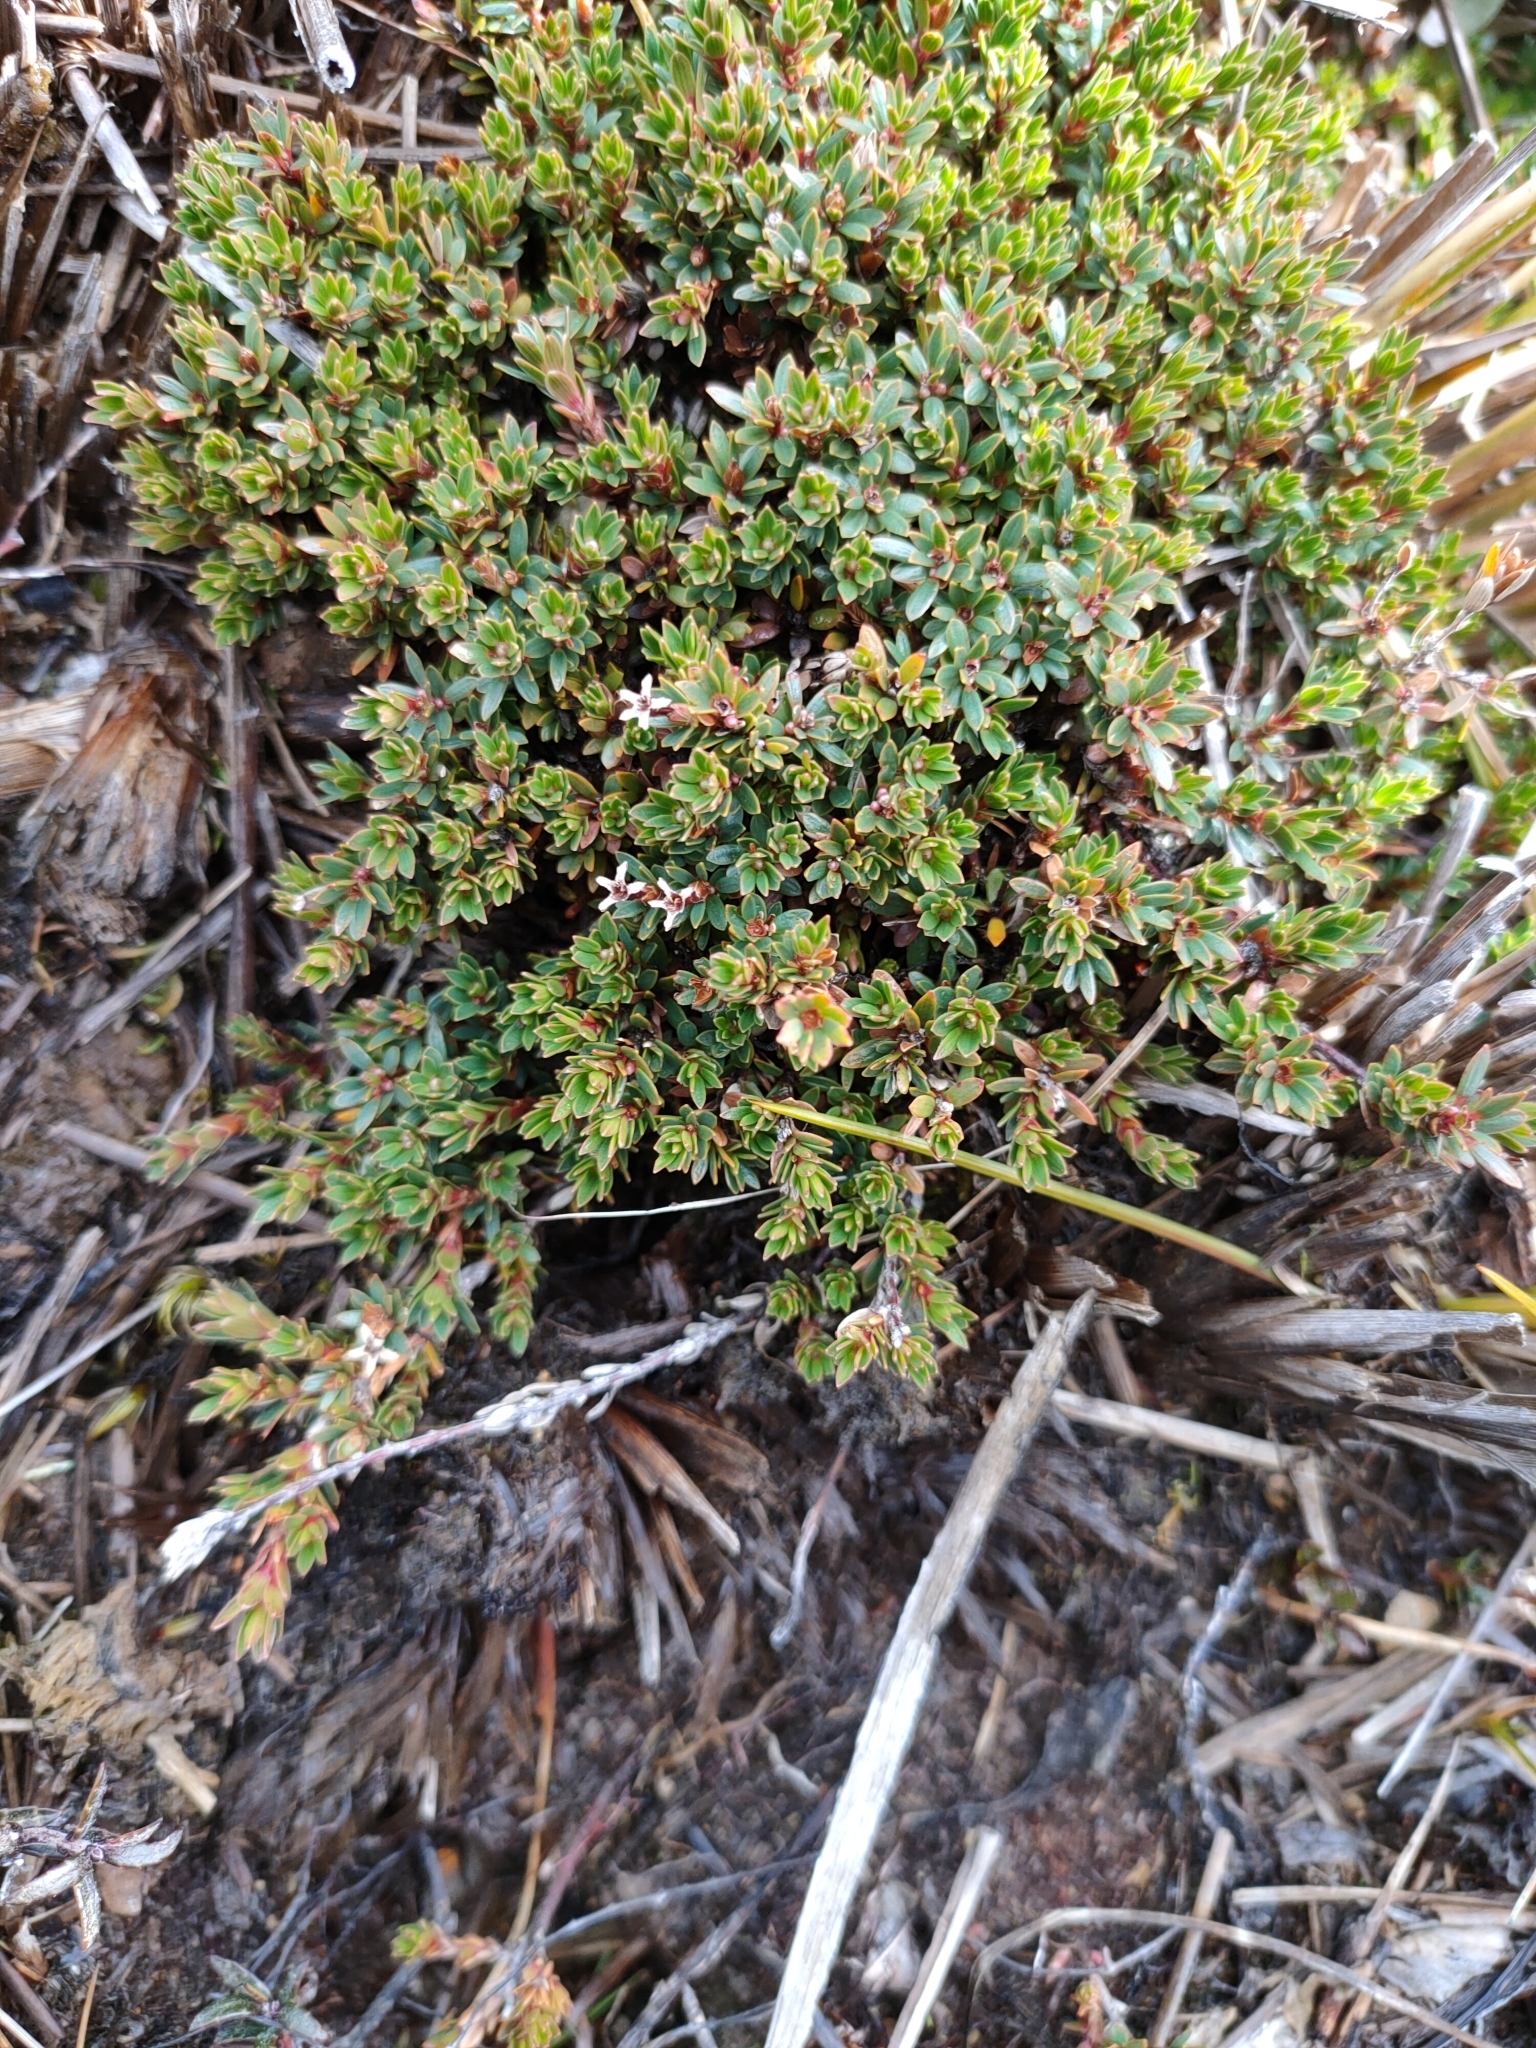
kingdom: Plantae
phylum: Tracheophyta
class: Magnoliopsida
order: Ericales
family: Ericaceae
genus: Pentachondra
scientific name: Pentachondra pumila
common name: Carpet-heath
